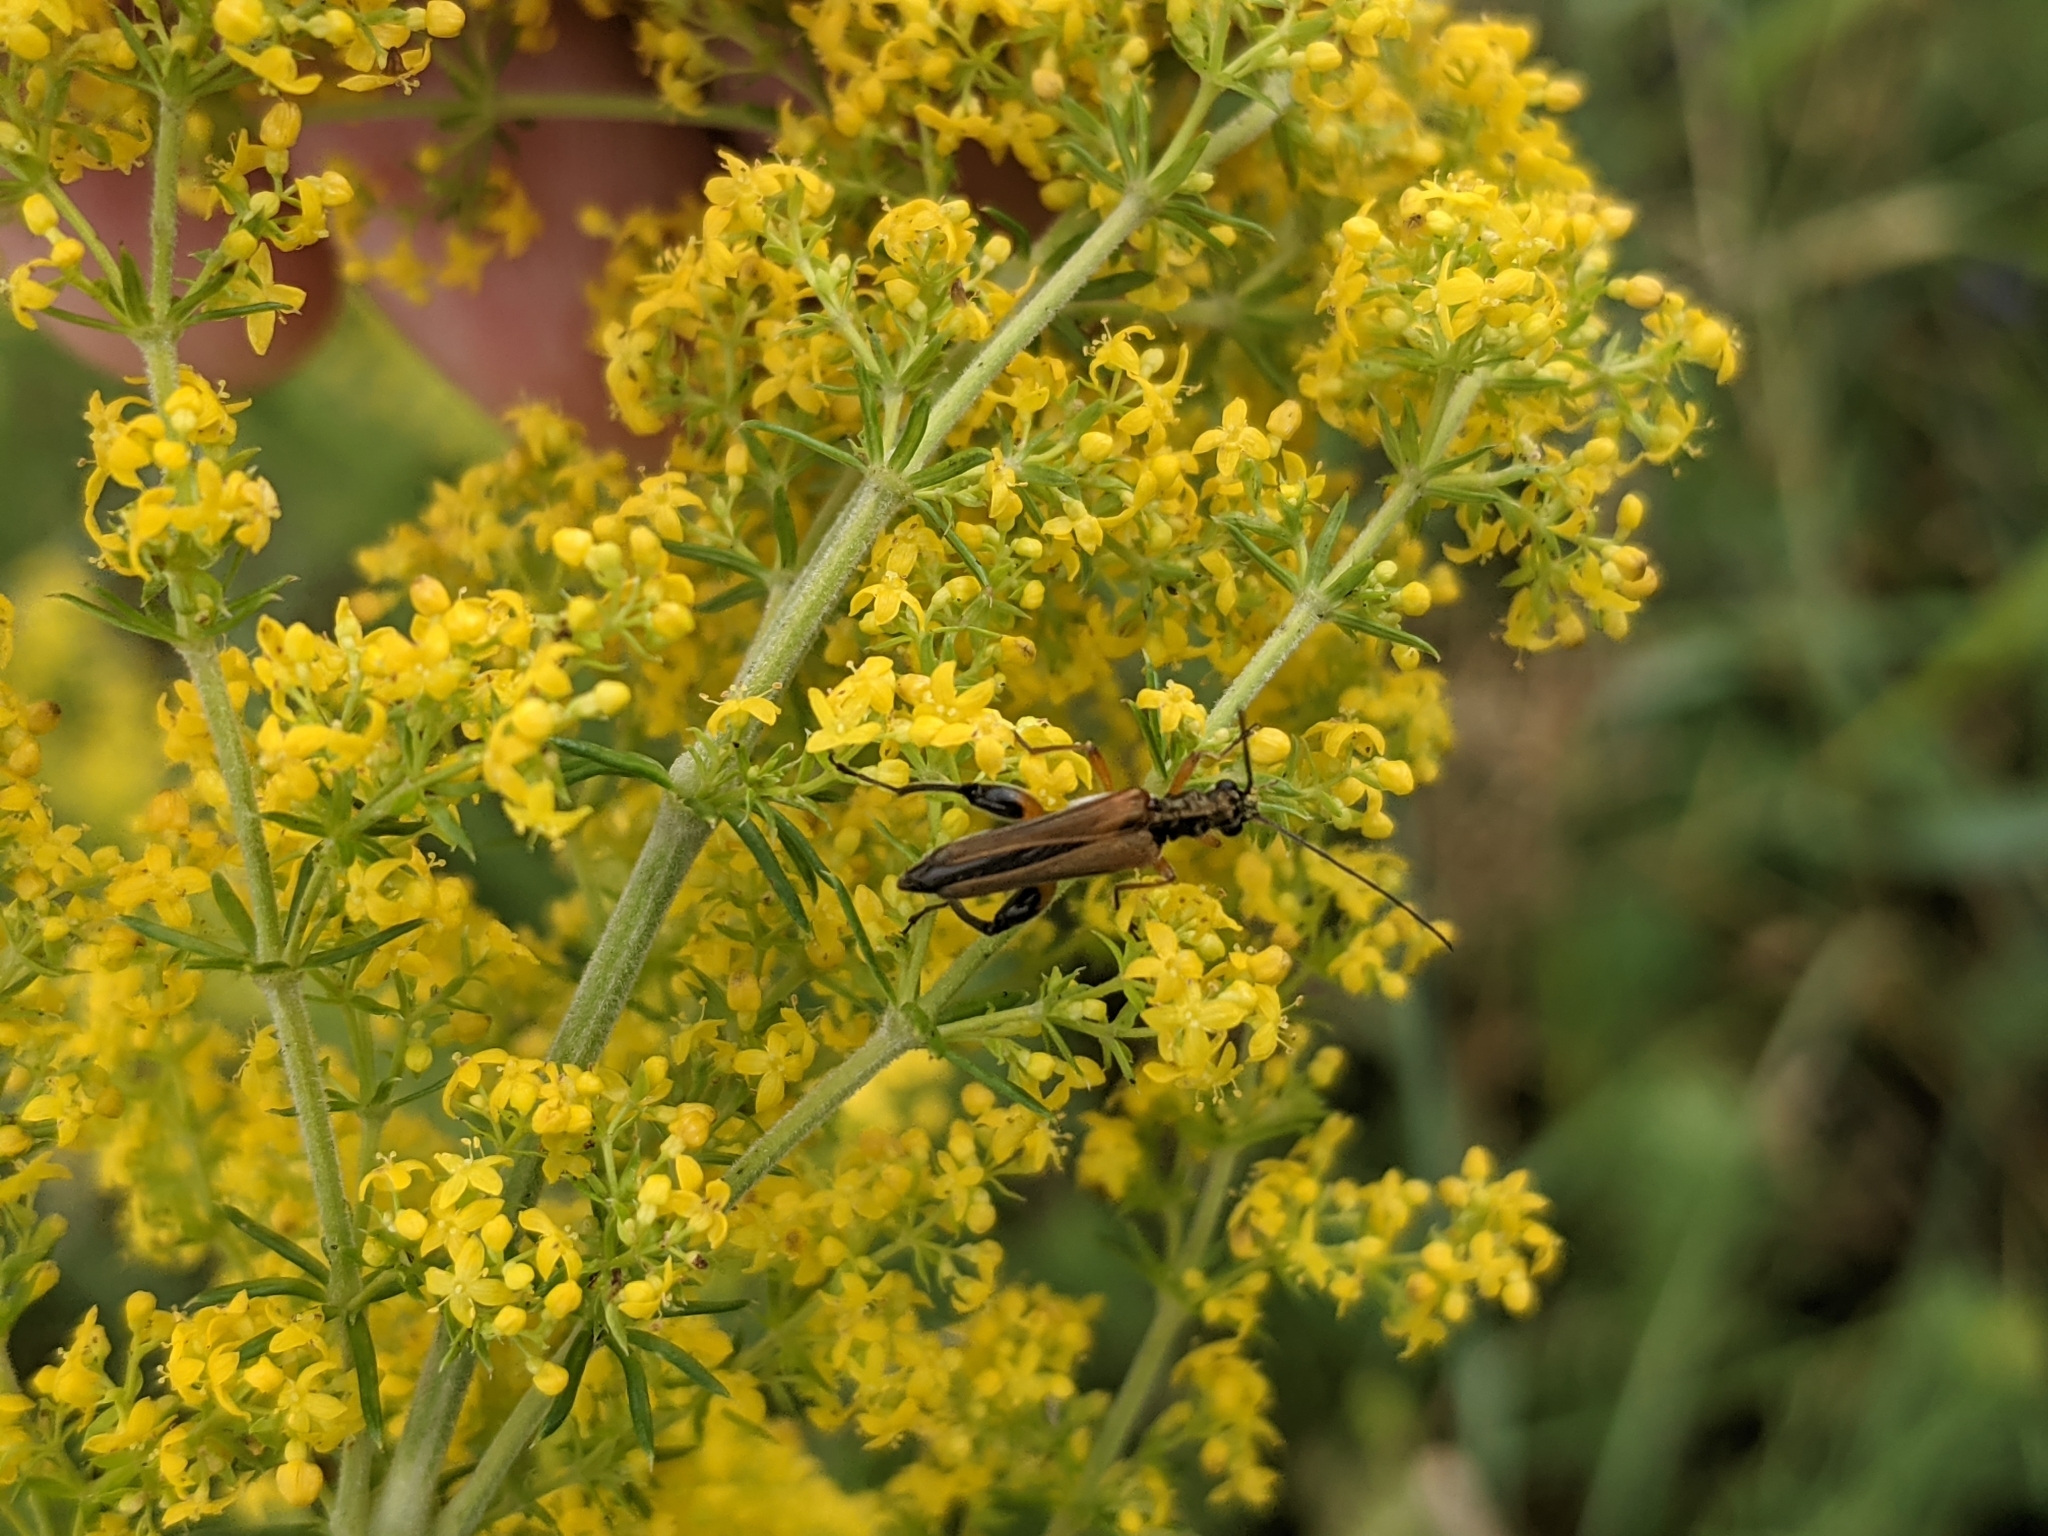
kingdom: Animalia
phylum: Arthropoda
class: Insecta
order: Coleoptera
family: Oedemeridae
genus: Oedemera
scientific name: Oedemera podagrariae
